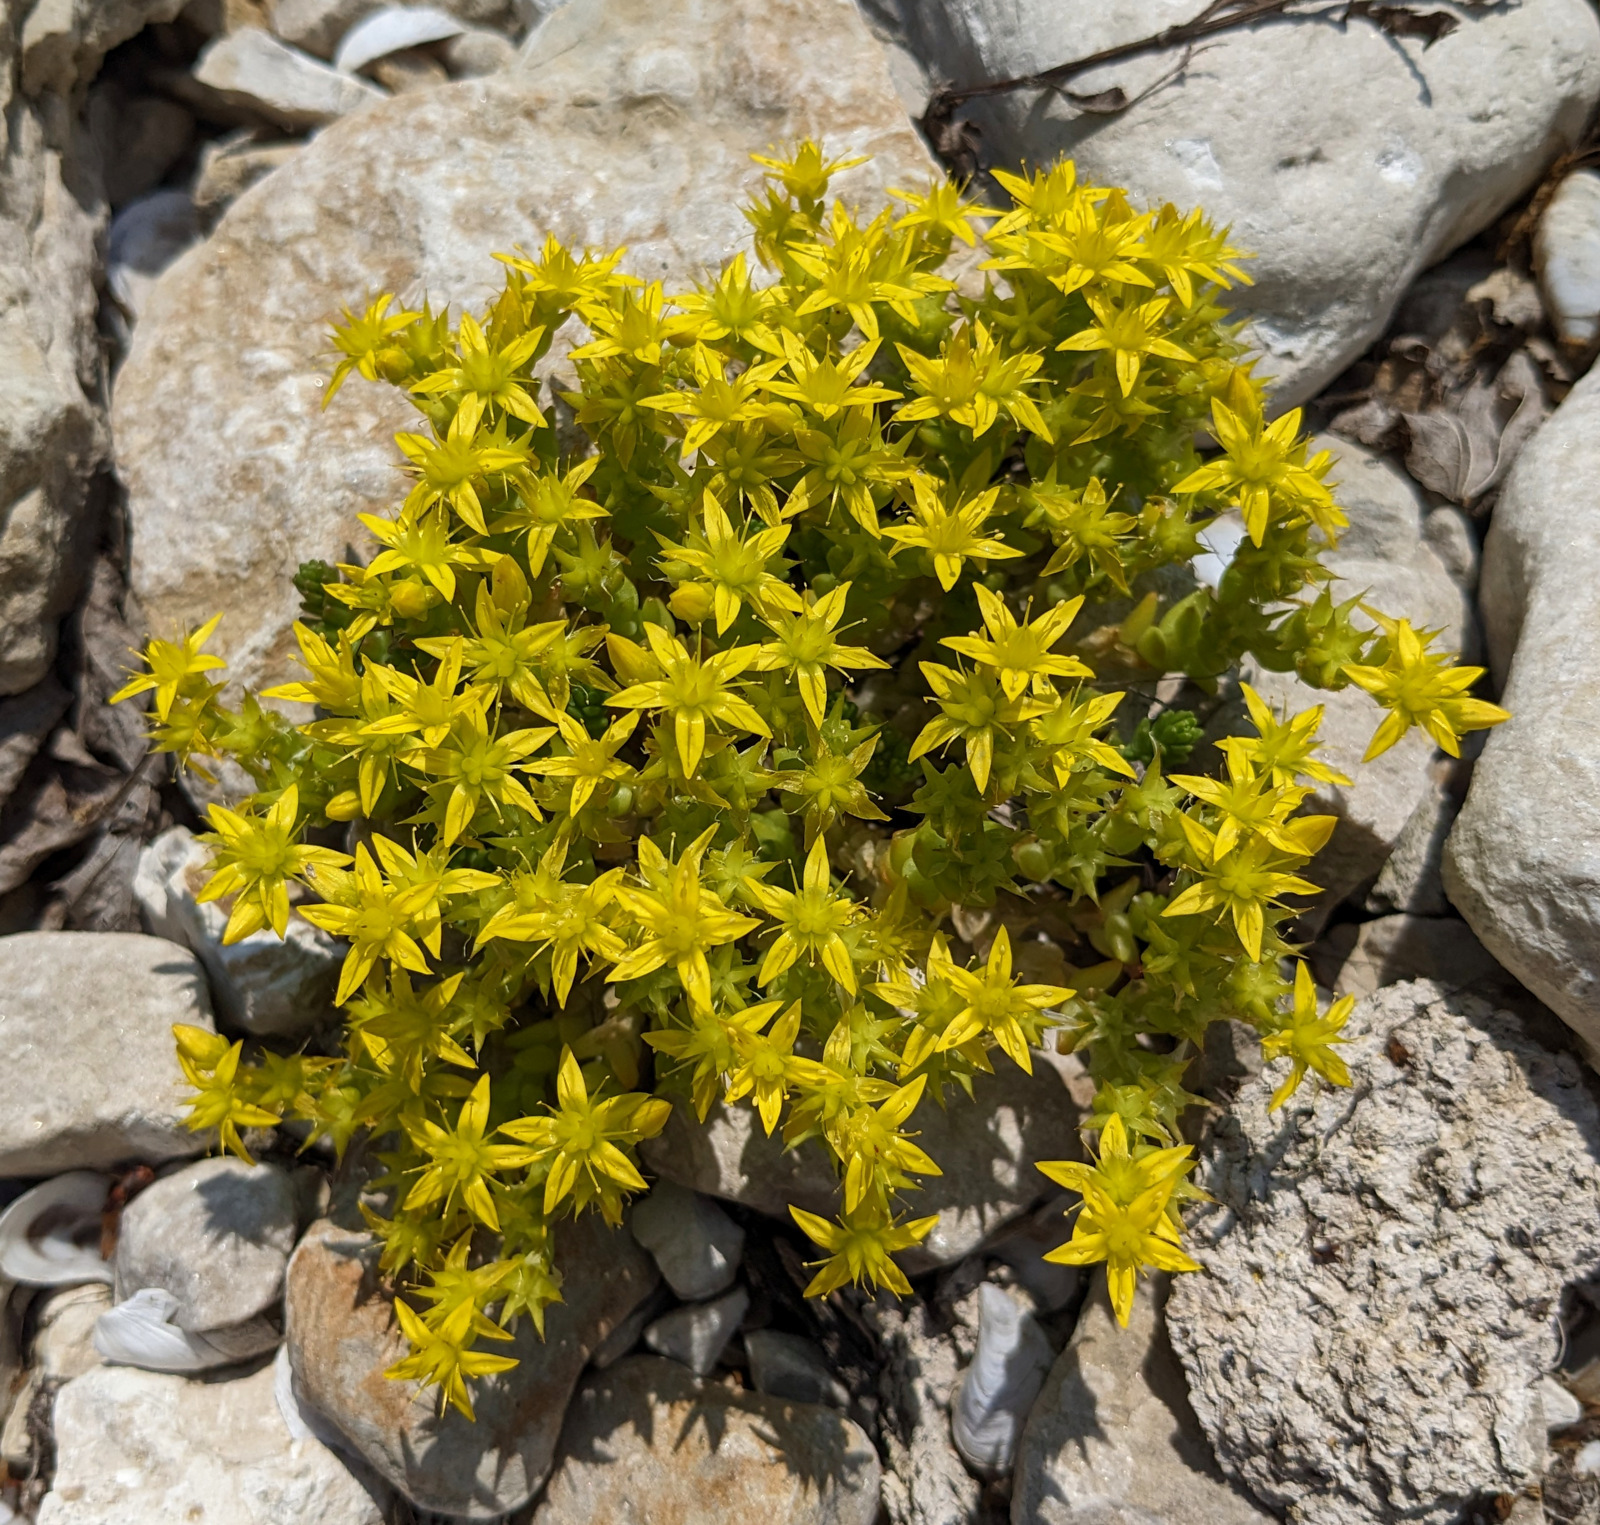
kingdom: Plantae
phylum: Tracheophyta
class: Magnoliopsida
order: Saxifragales
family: Crassulaceae
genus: Sedum
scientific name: Sedum acre
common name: Biting stonecrop
